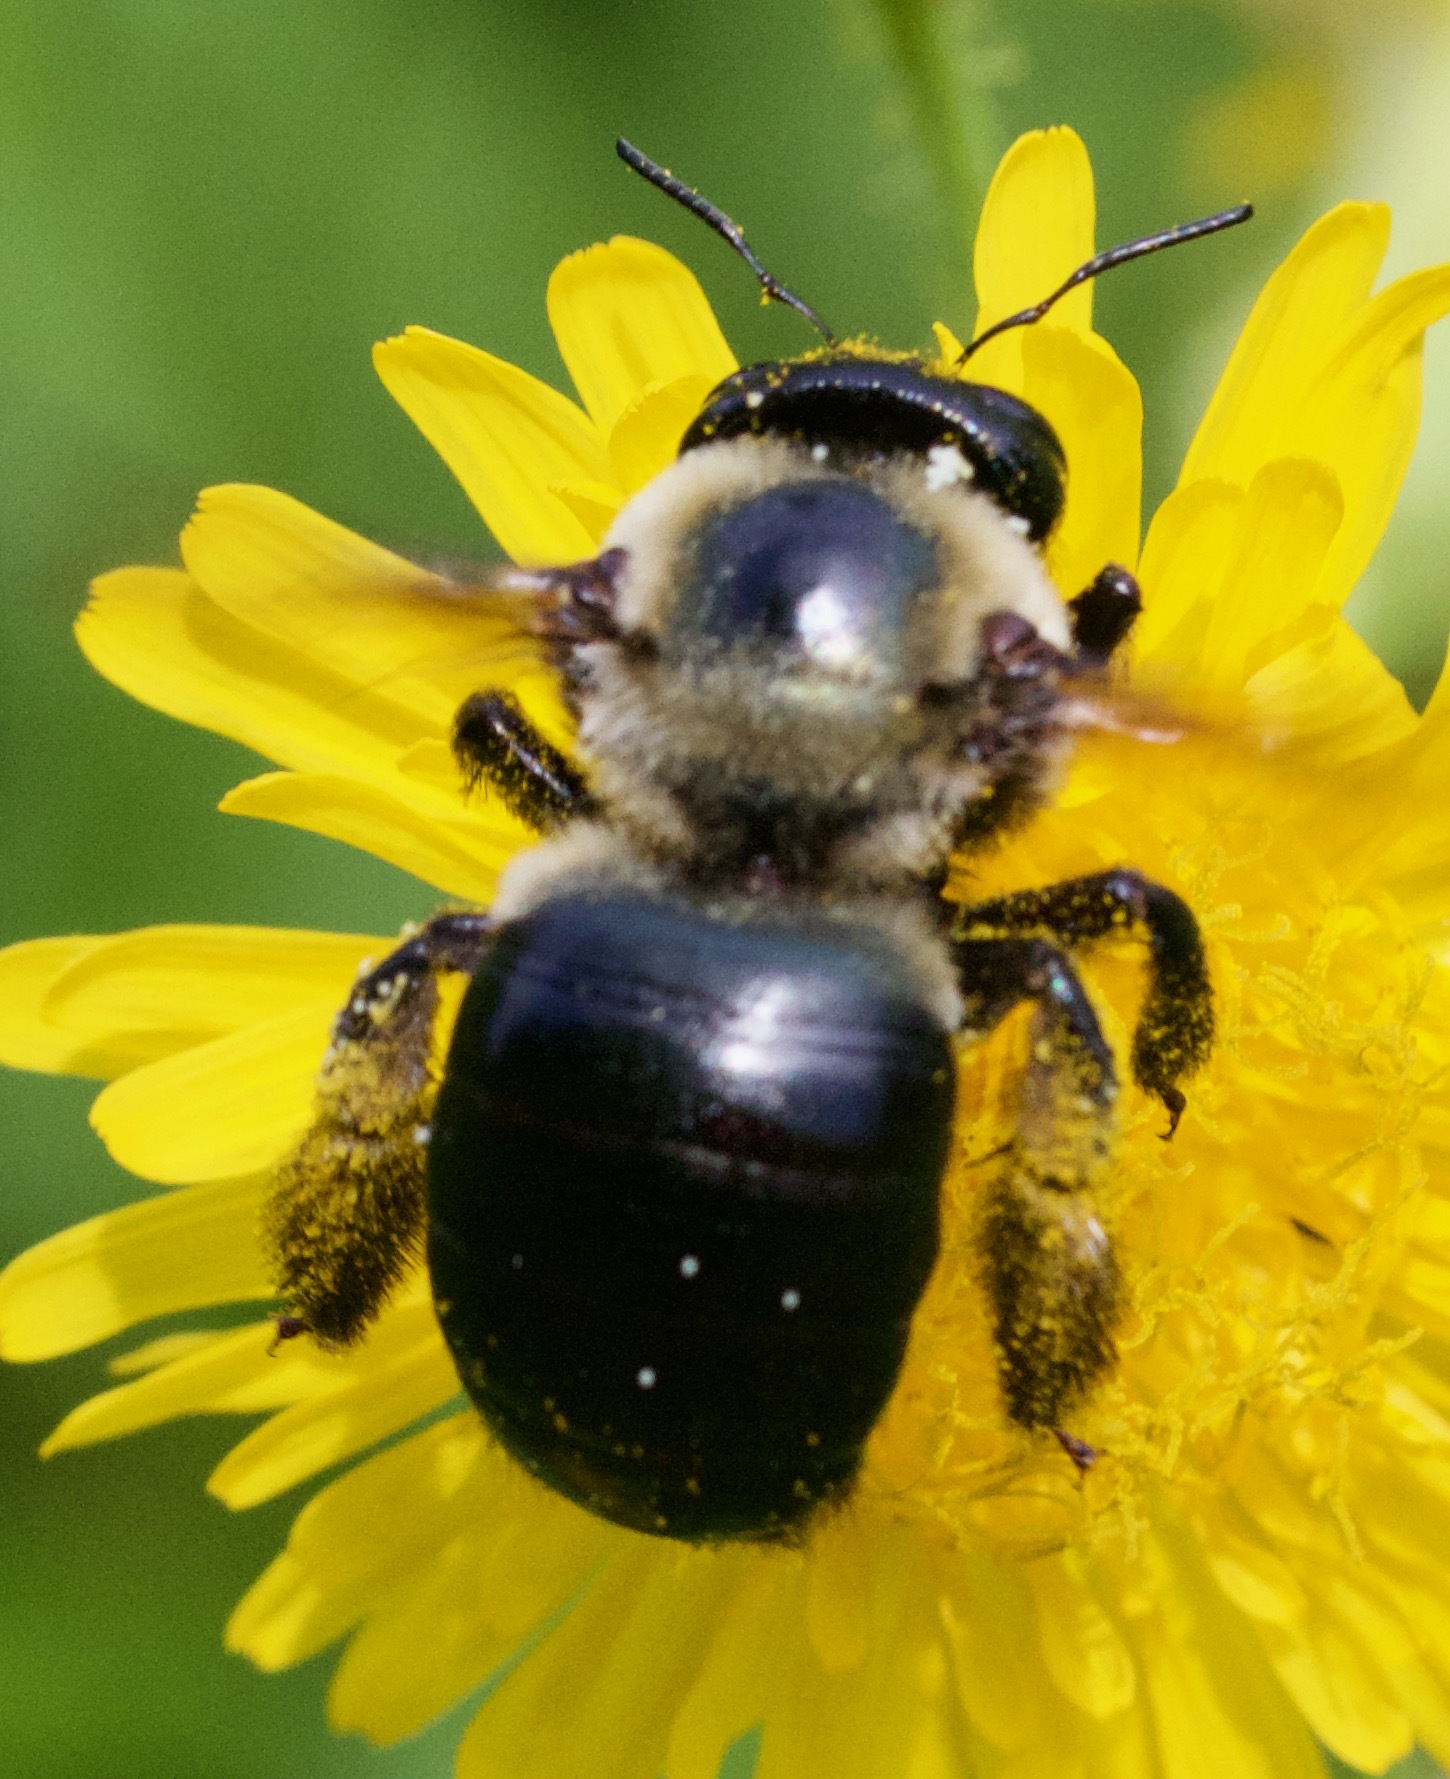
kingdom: Animalia
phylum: Arthropoda
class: Insecta
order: Hymenoptera
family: Apidae
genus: Xylocopa
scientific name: Xylocopa virginica
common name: Carpenter bee
